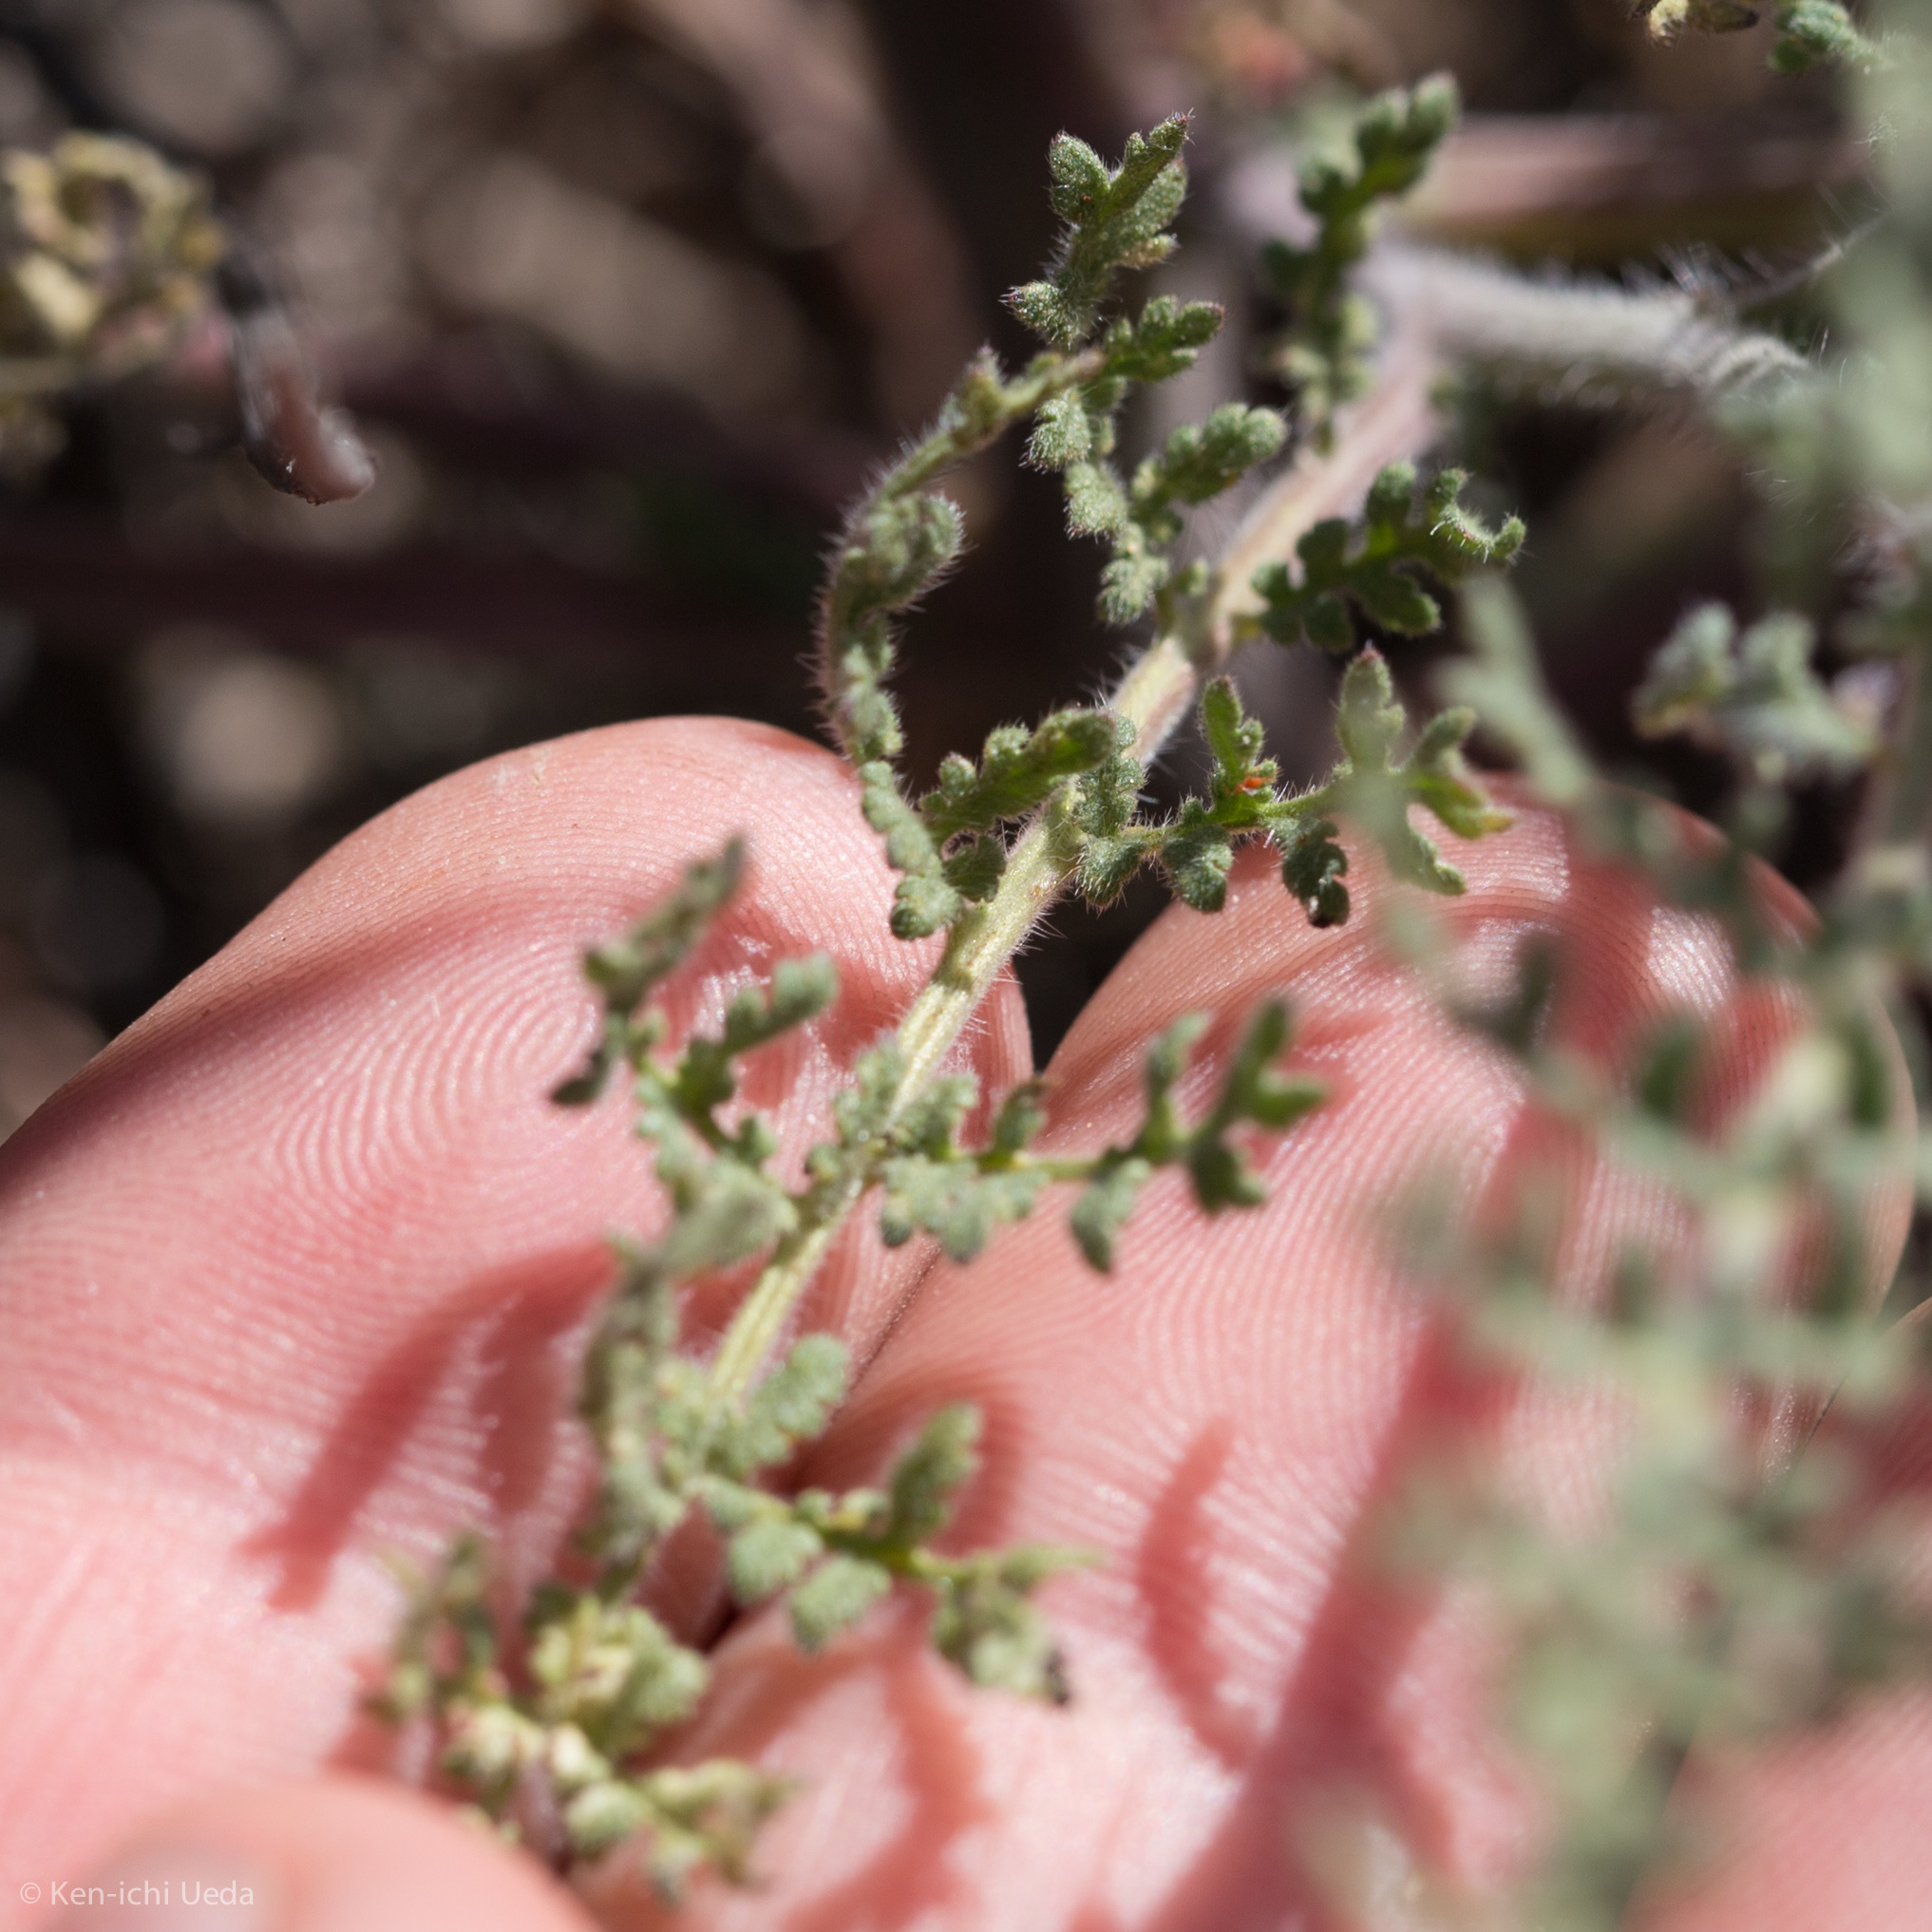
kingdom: Plantae
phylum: Tracheophyta
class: Magnoliopsida
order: Boraginales
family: Hydrophyllaceae
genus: Phacelia
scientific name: Phacelia distans
